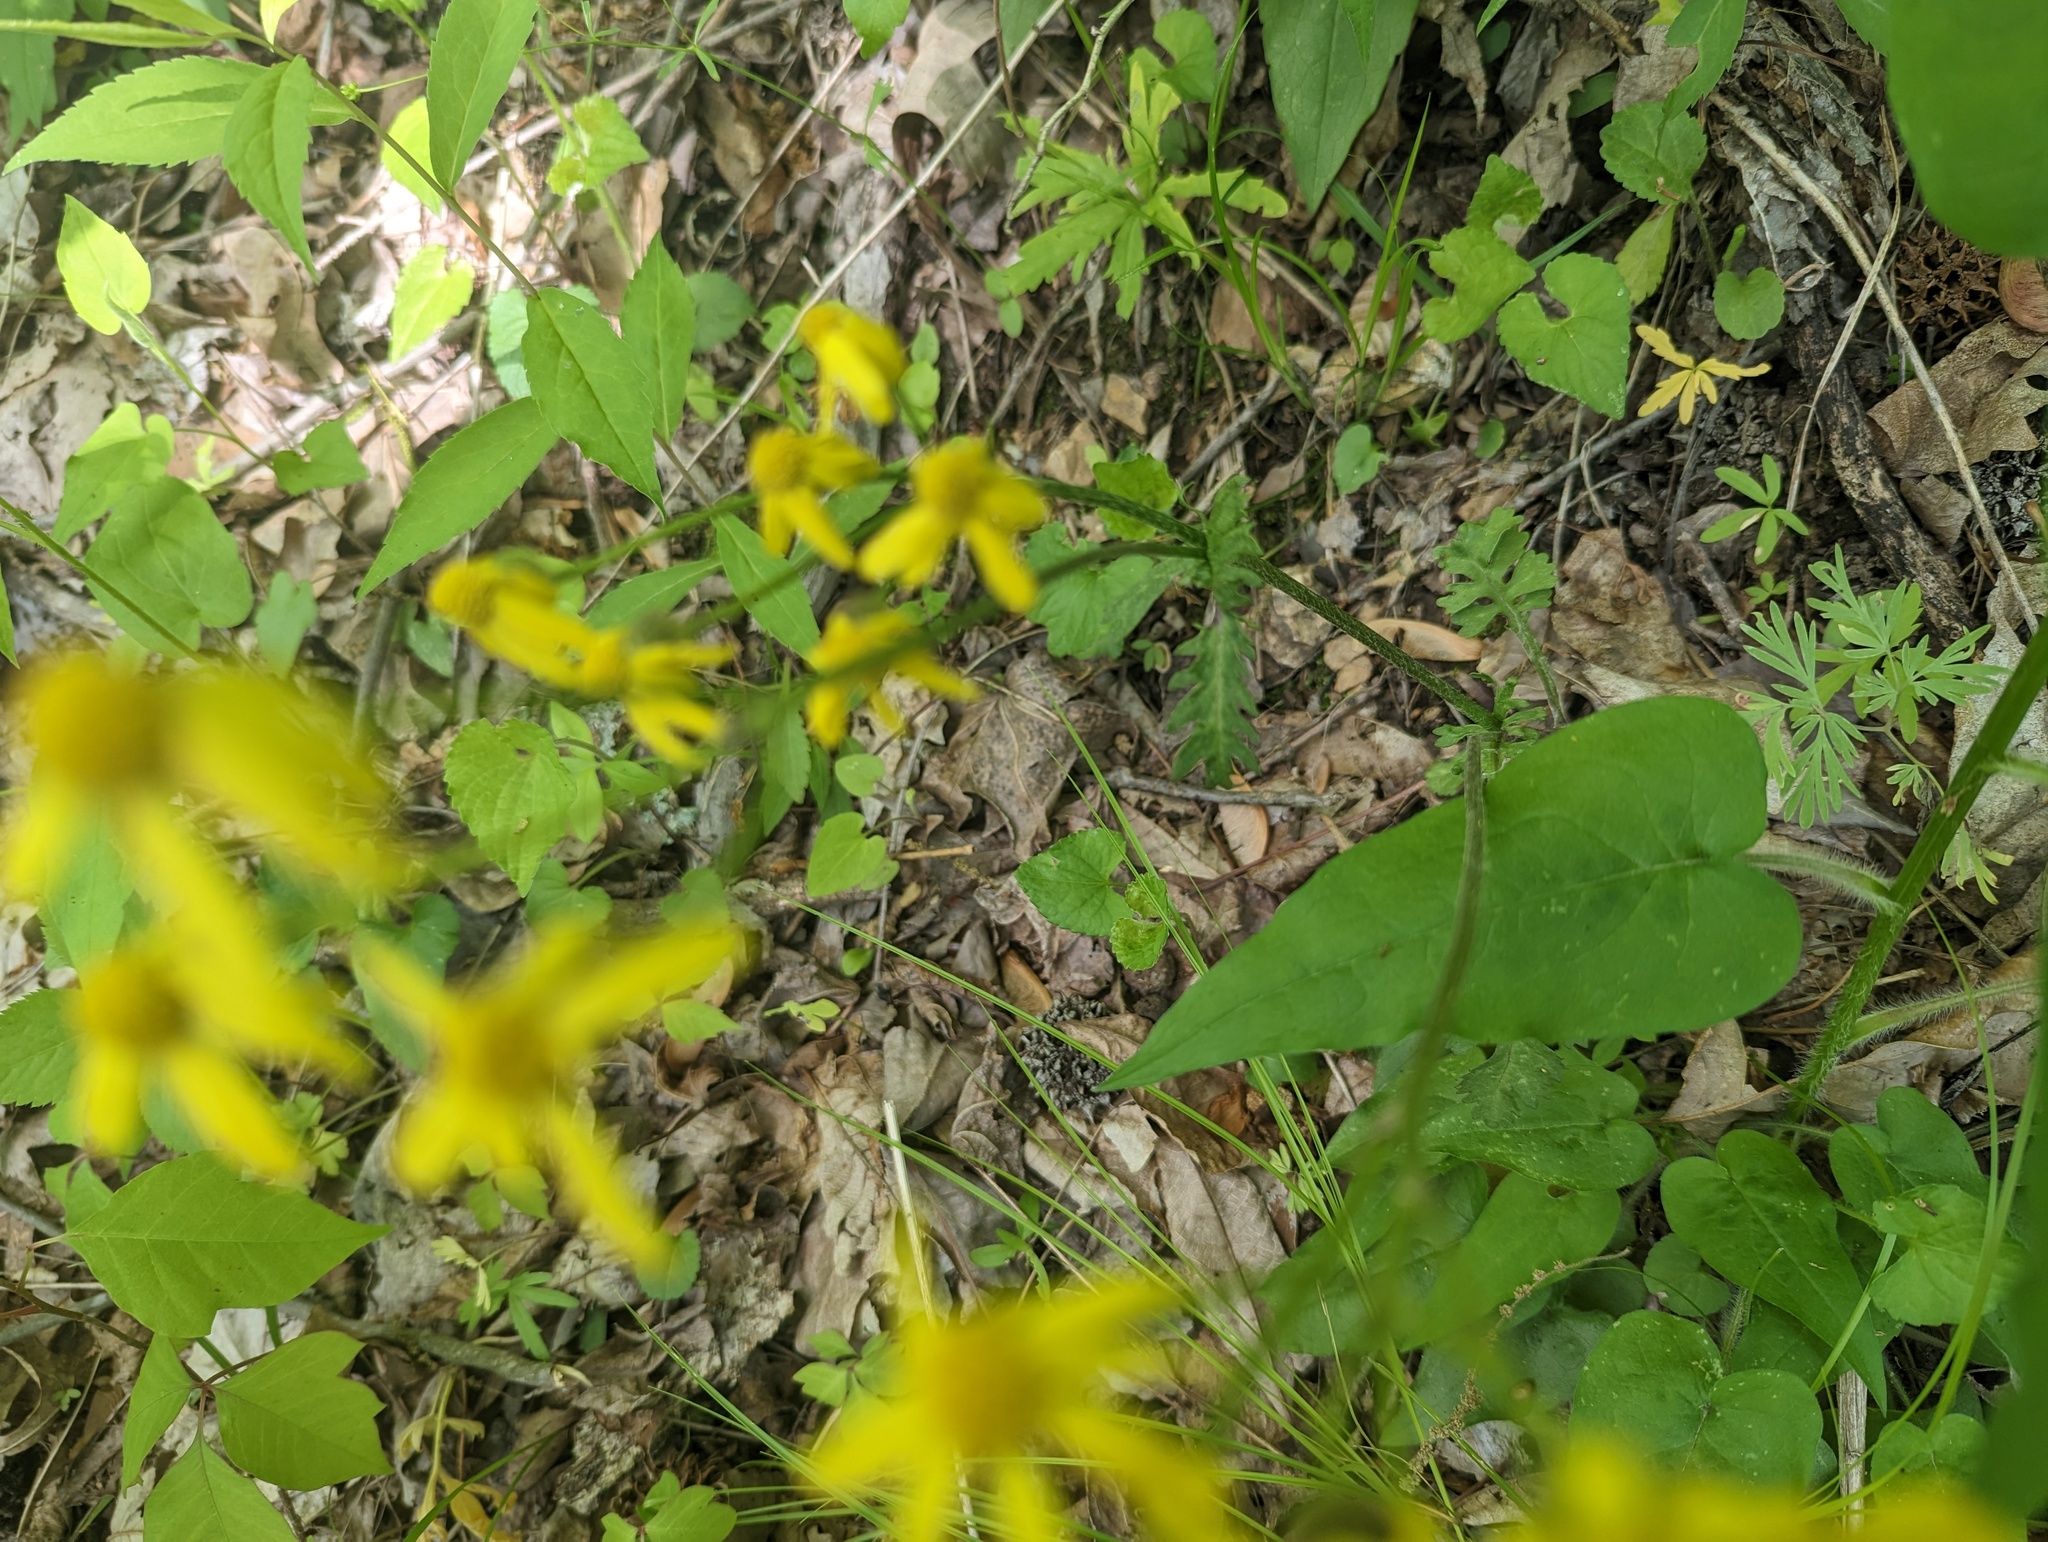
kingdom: Plantae
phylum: Tracheophyta
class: Magnoliopsida
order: Asterales
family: Asteraceae
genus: Packera
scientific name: Packera obovata
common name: Round-leaf ragwort
